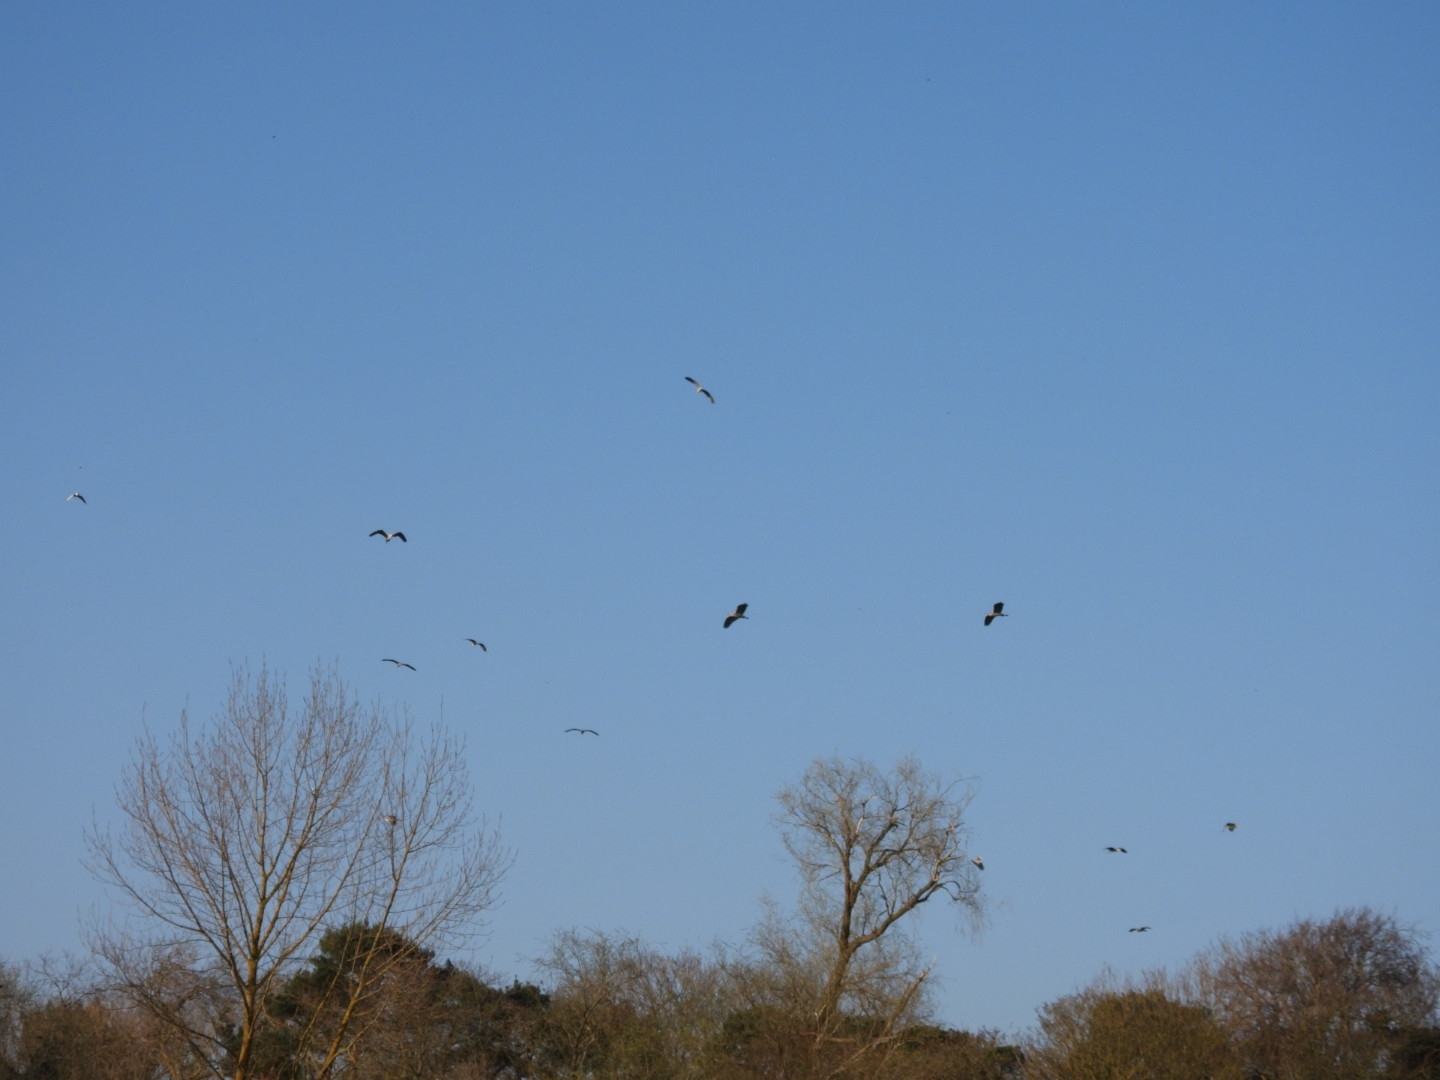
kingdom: Animalia
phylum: Chordata
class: Aves
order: Pelecaniformes
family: Ardeidae
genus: Ardea
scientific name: Ardea cinerea
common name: Grey heron
